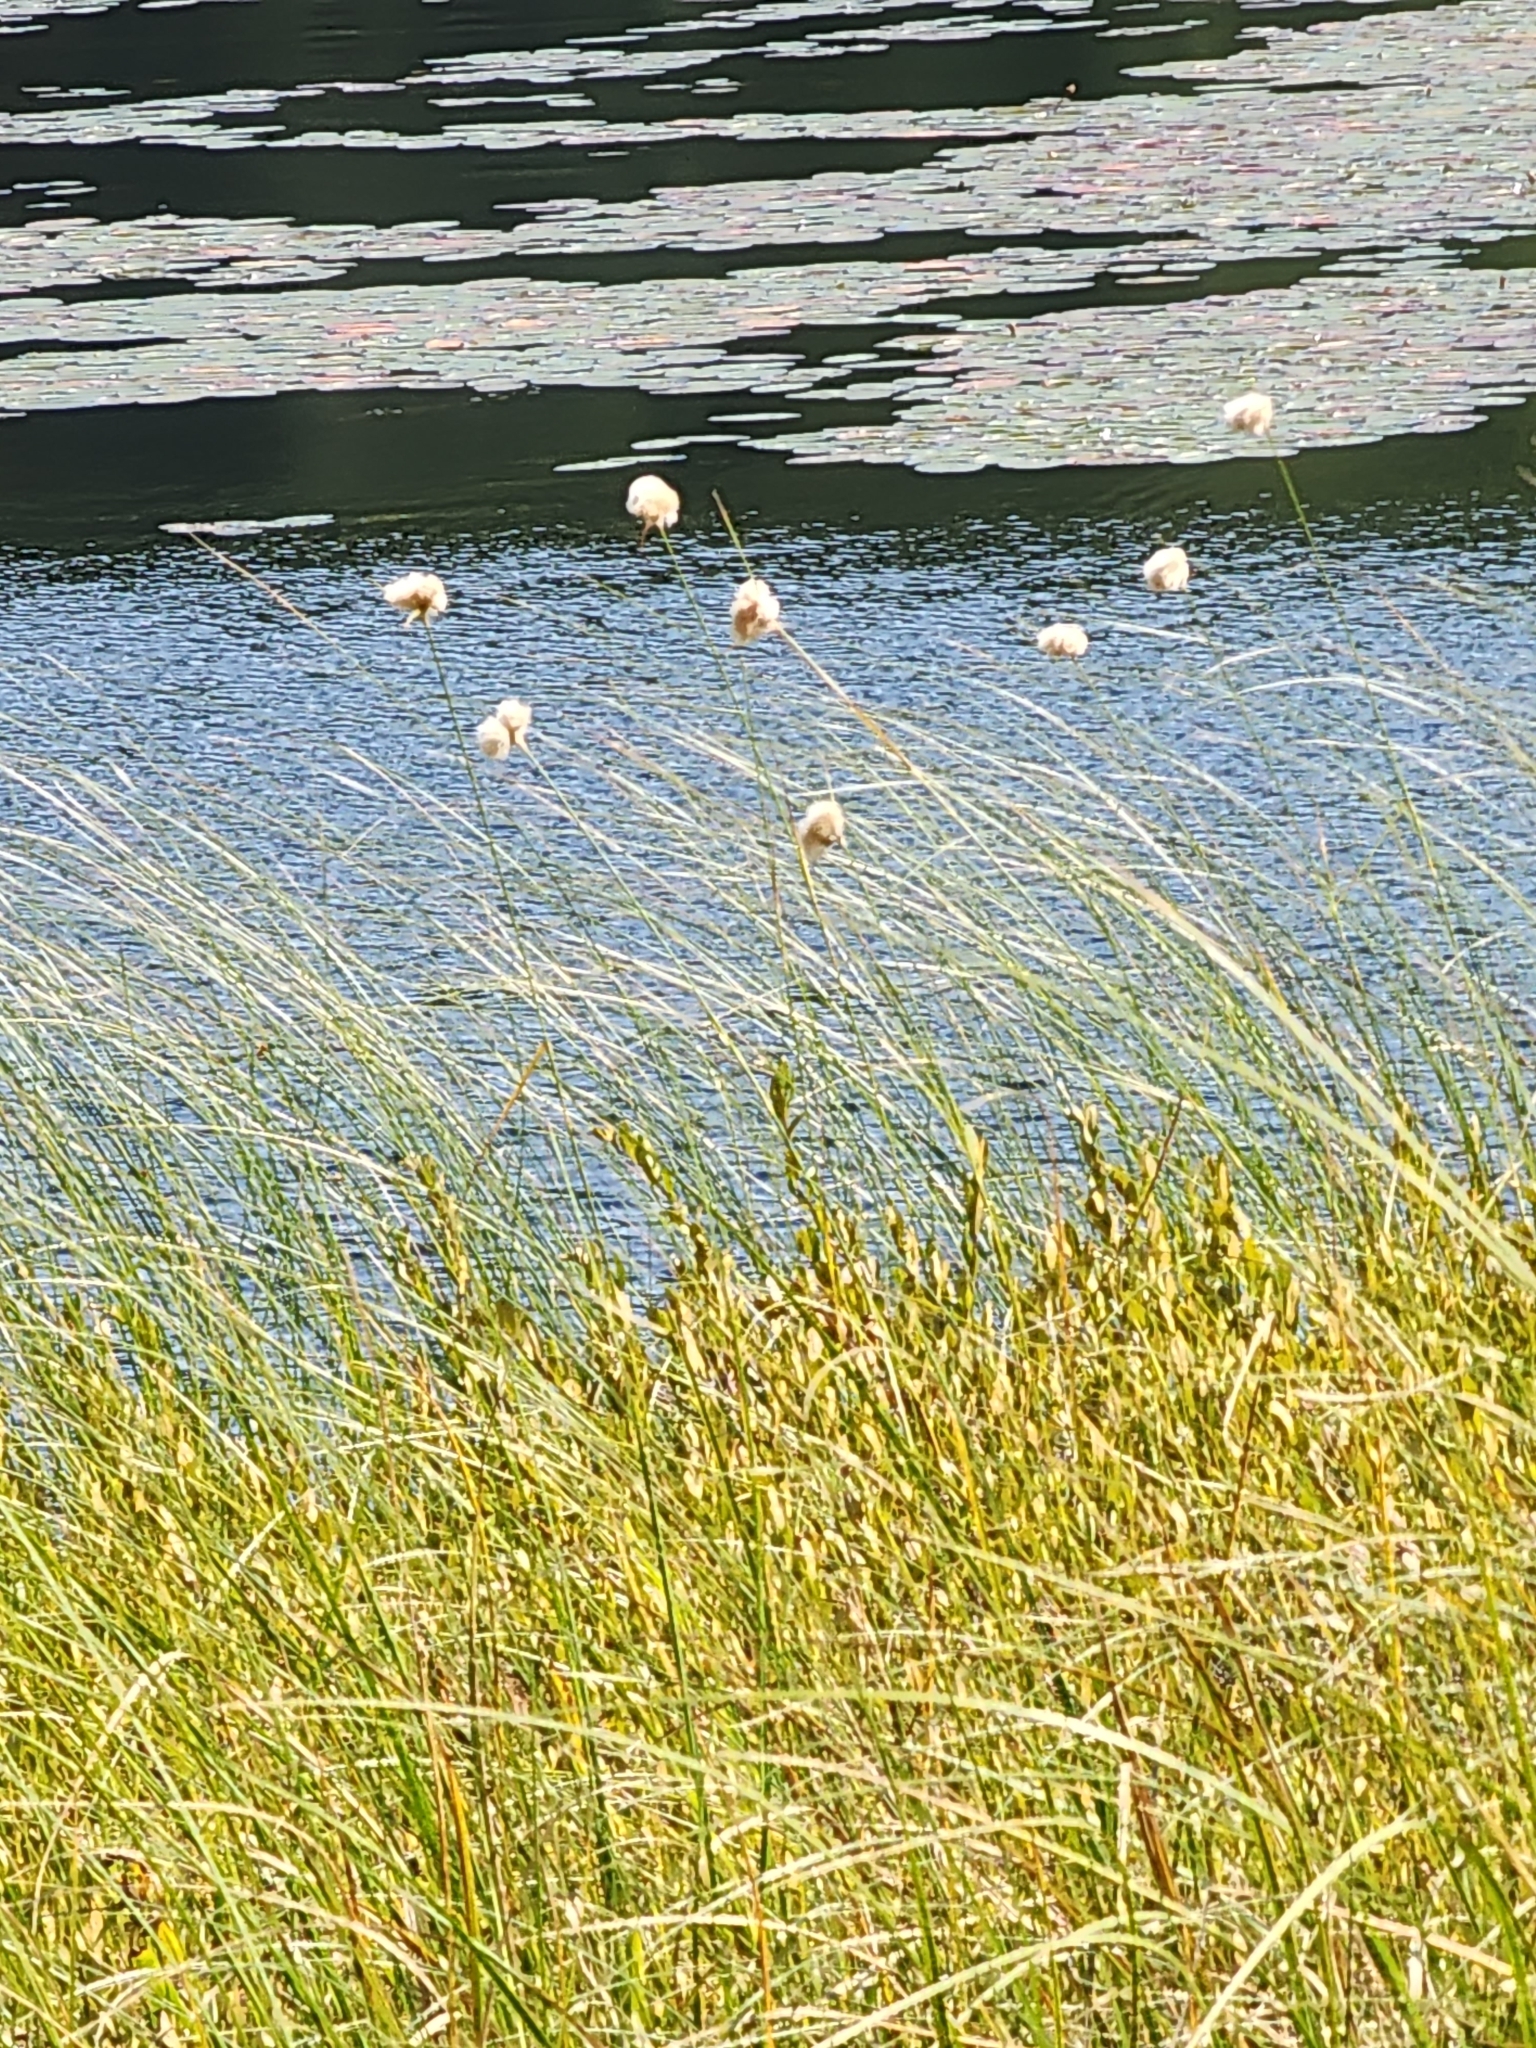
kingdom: Plantae
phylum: Tracheophyta
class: Liliopsida
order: Poales
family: Cyperaceae
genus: Eriophorum
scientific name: Eriophorum virginicum
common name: Tawny cottongrass
